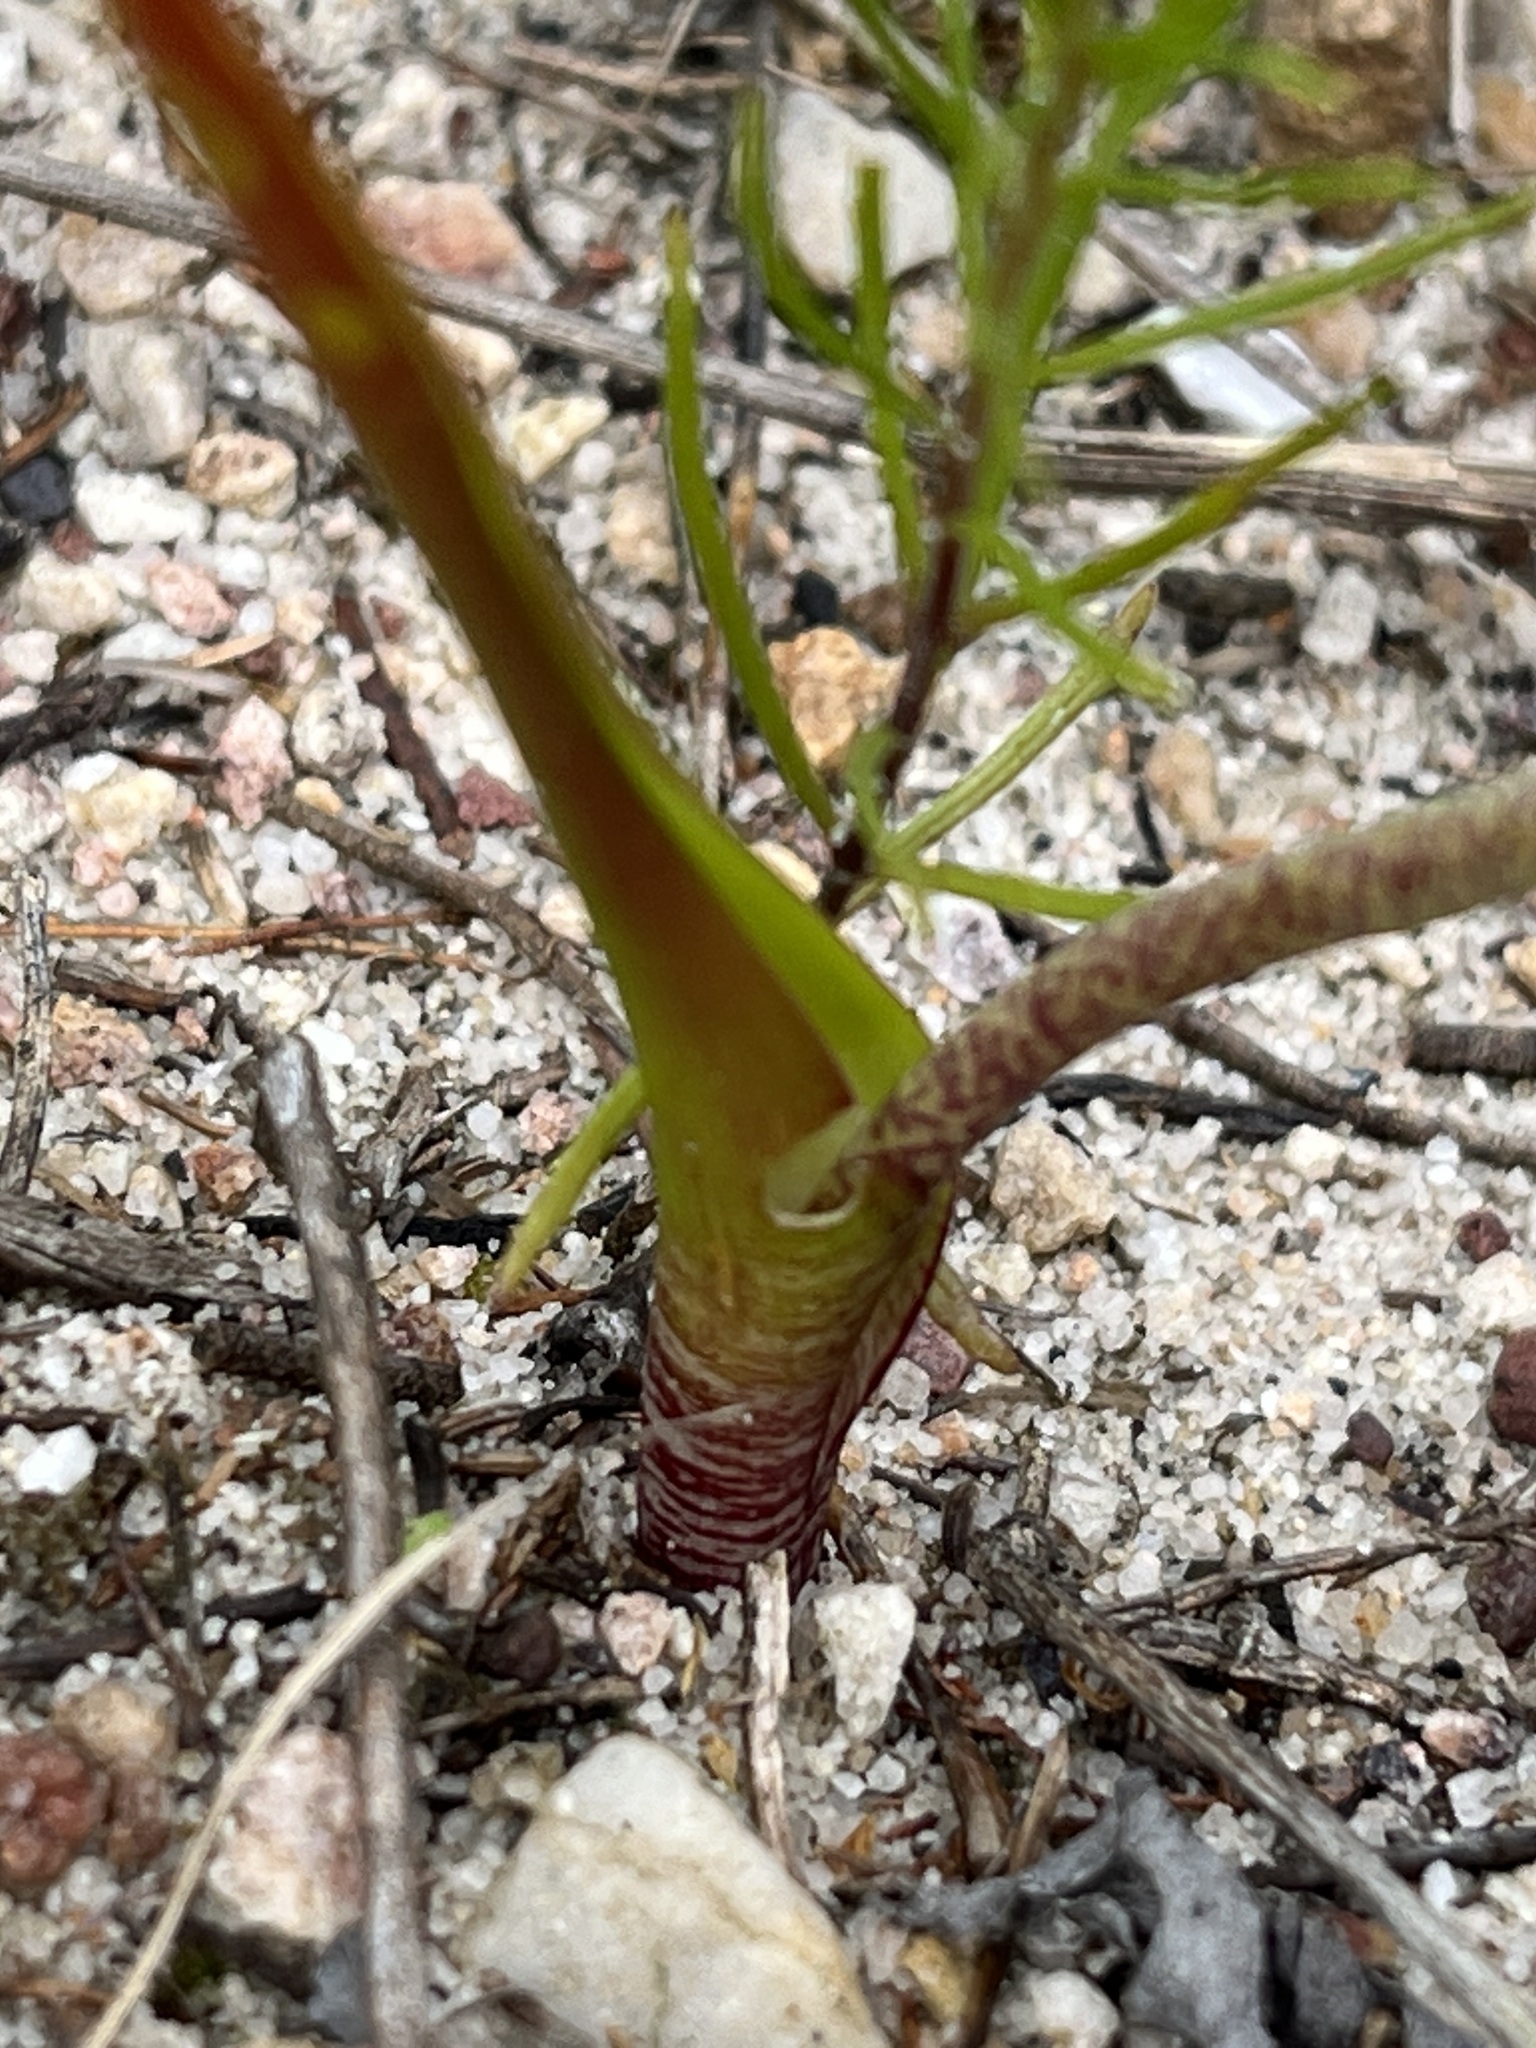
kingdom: Plantae
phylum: Tracheophyta
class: Liliopsida
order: Asparagales
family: Asparagaceae
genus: Lachenalia
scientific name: Lachenalia unifolia
